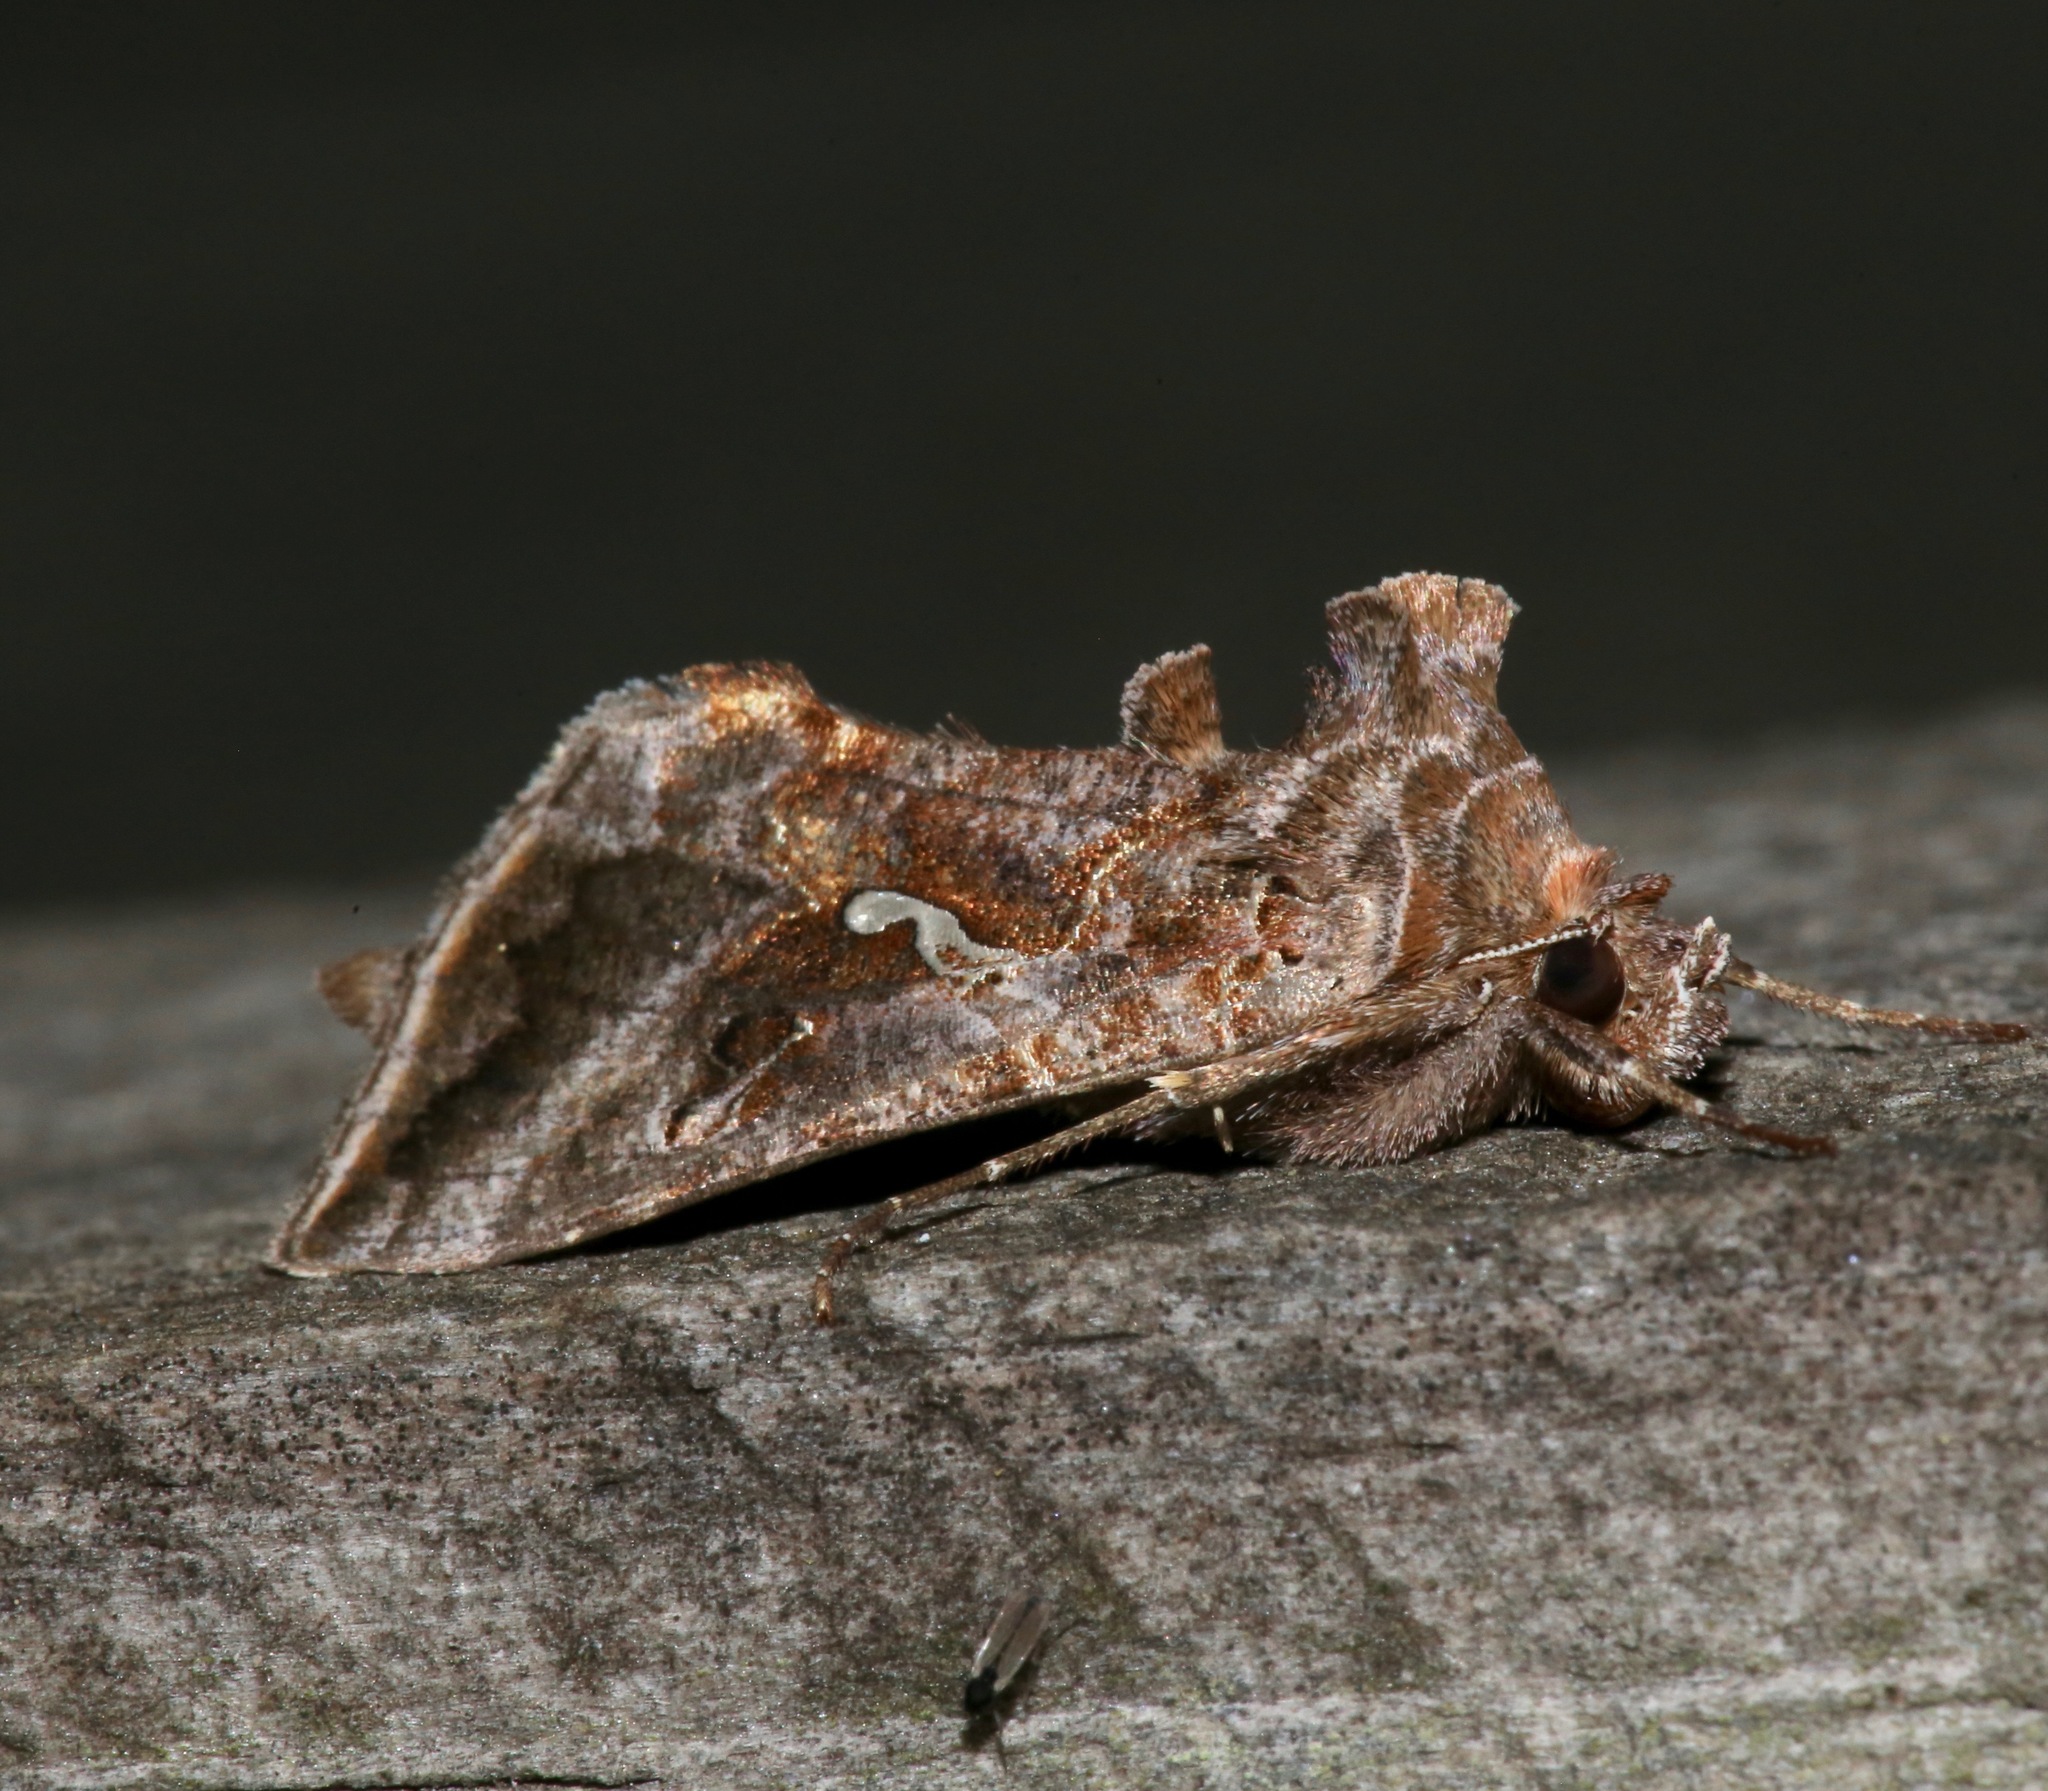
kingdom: Animalia
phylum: Arthropoda
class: Insecta
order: Lepidoptera
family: Noctuidae
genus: Autographa
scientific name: Autographa precationis
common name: Common looper moth
